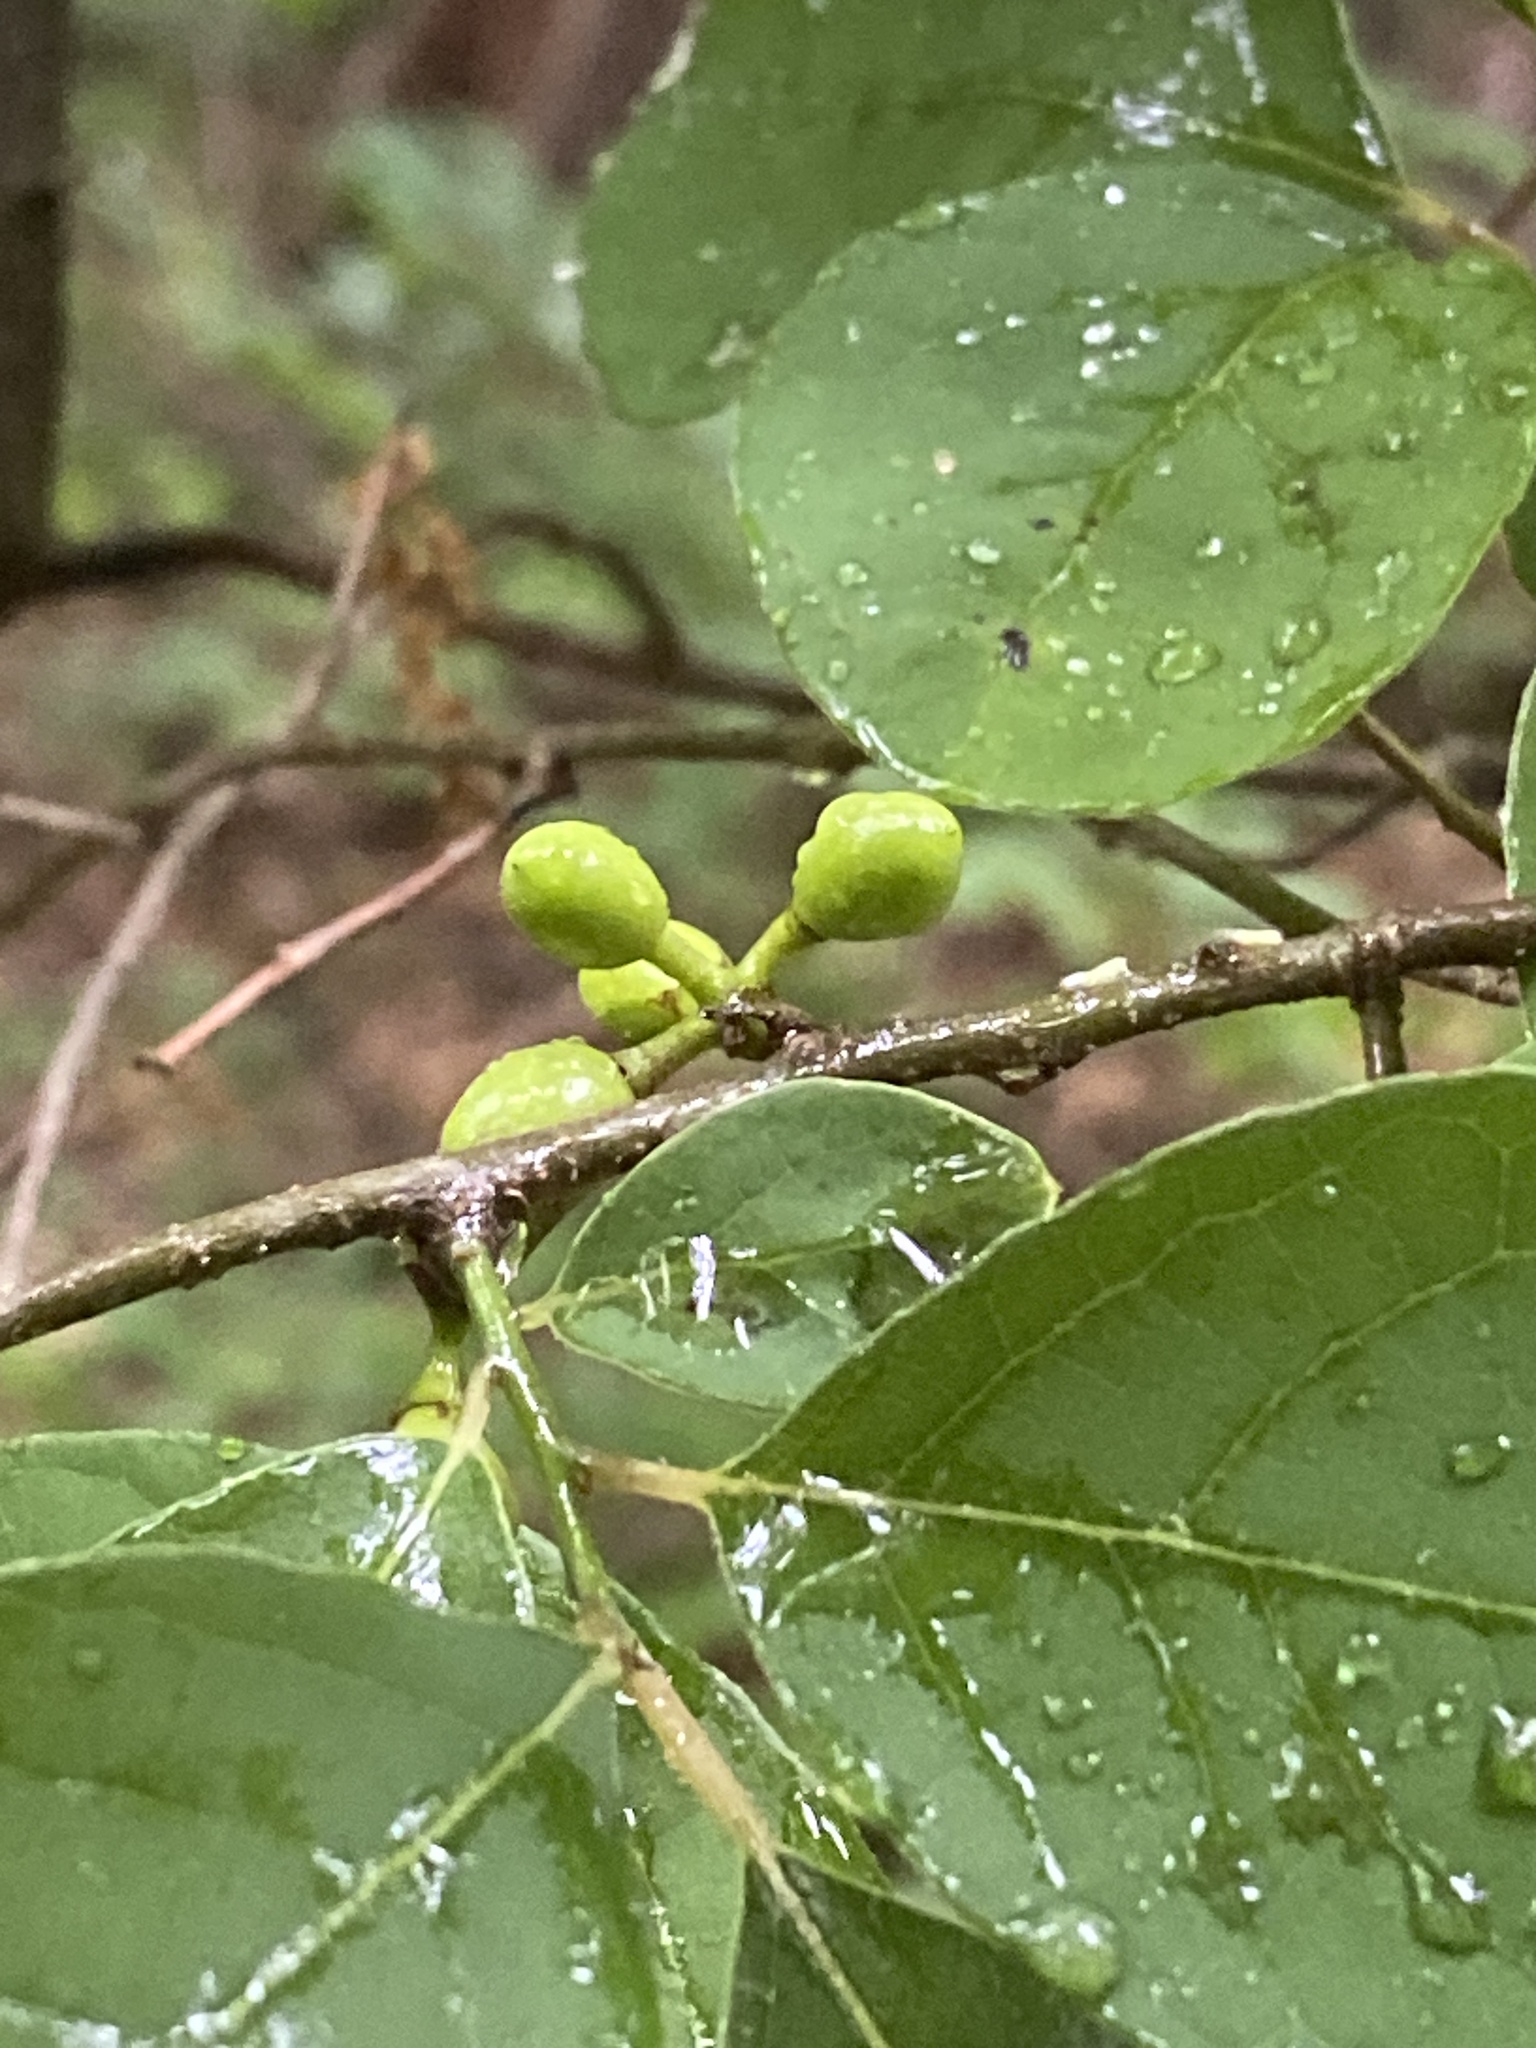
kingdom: Plantae
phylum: Tracheophyta
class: Magnoliopsida
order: Laurales
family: Lauraceae
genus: Lindera
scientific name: Lindera benzoin
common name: Spicebush
